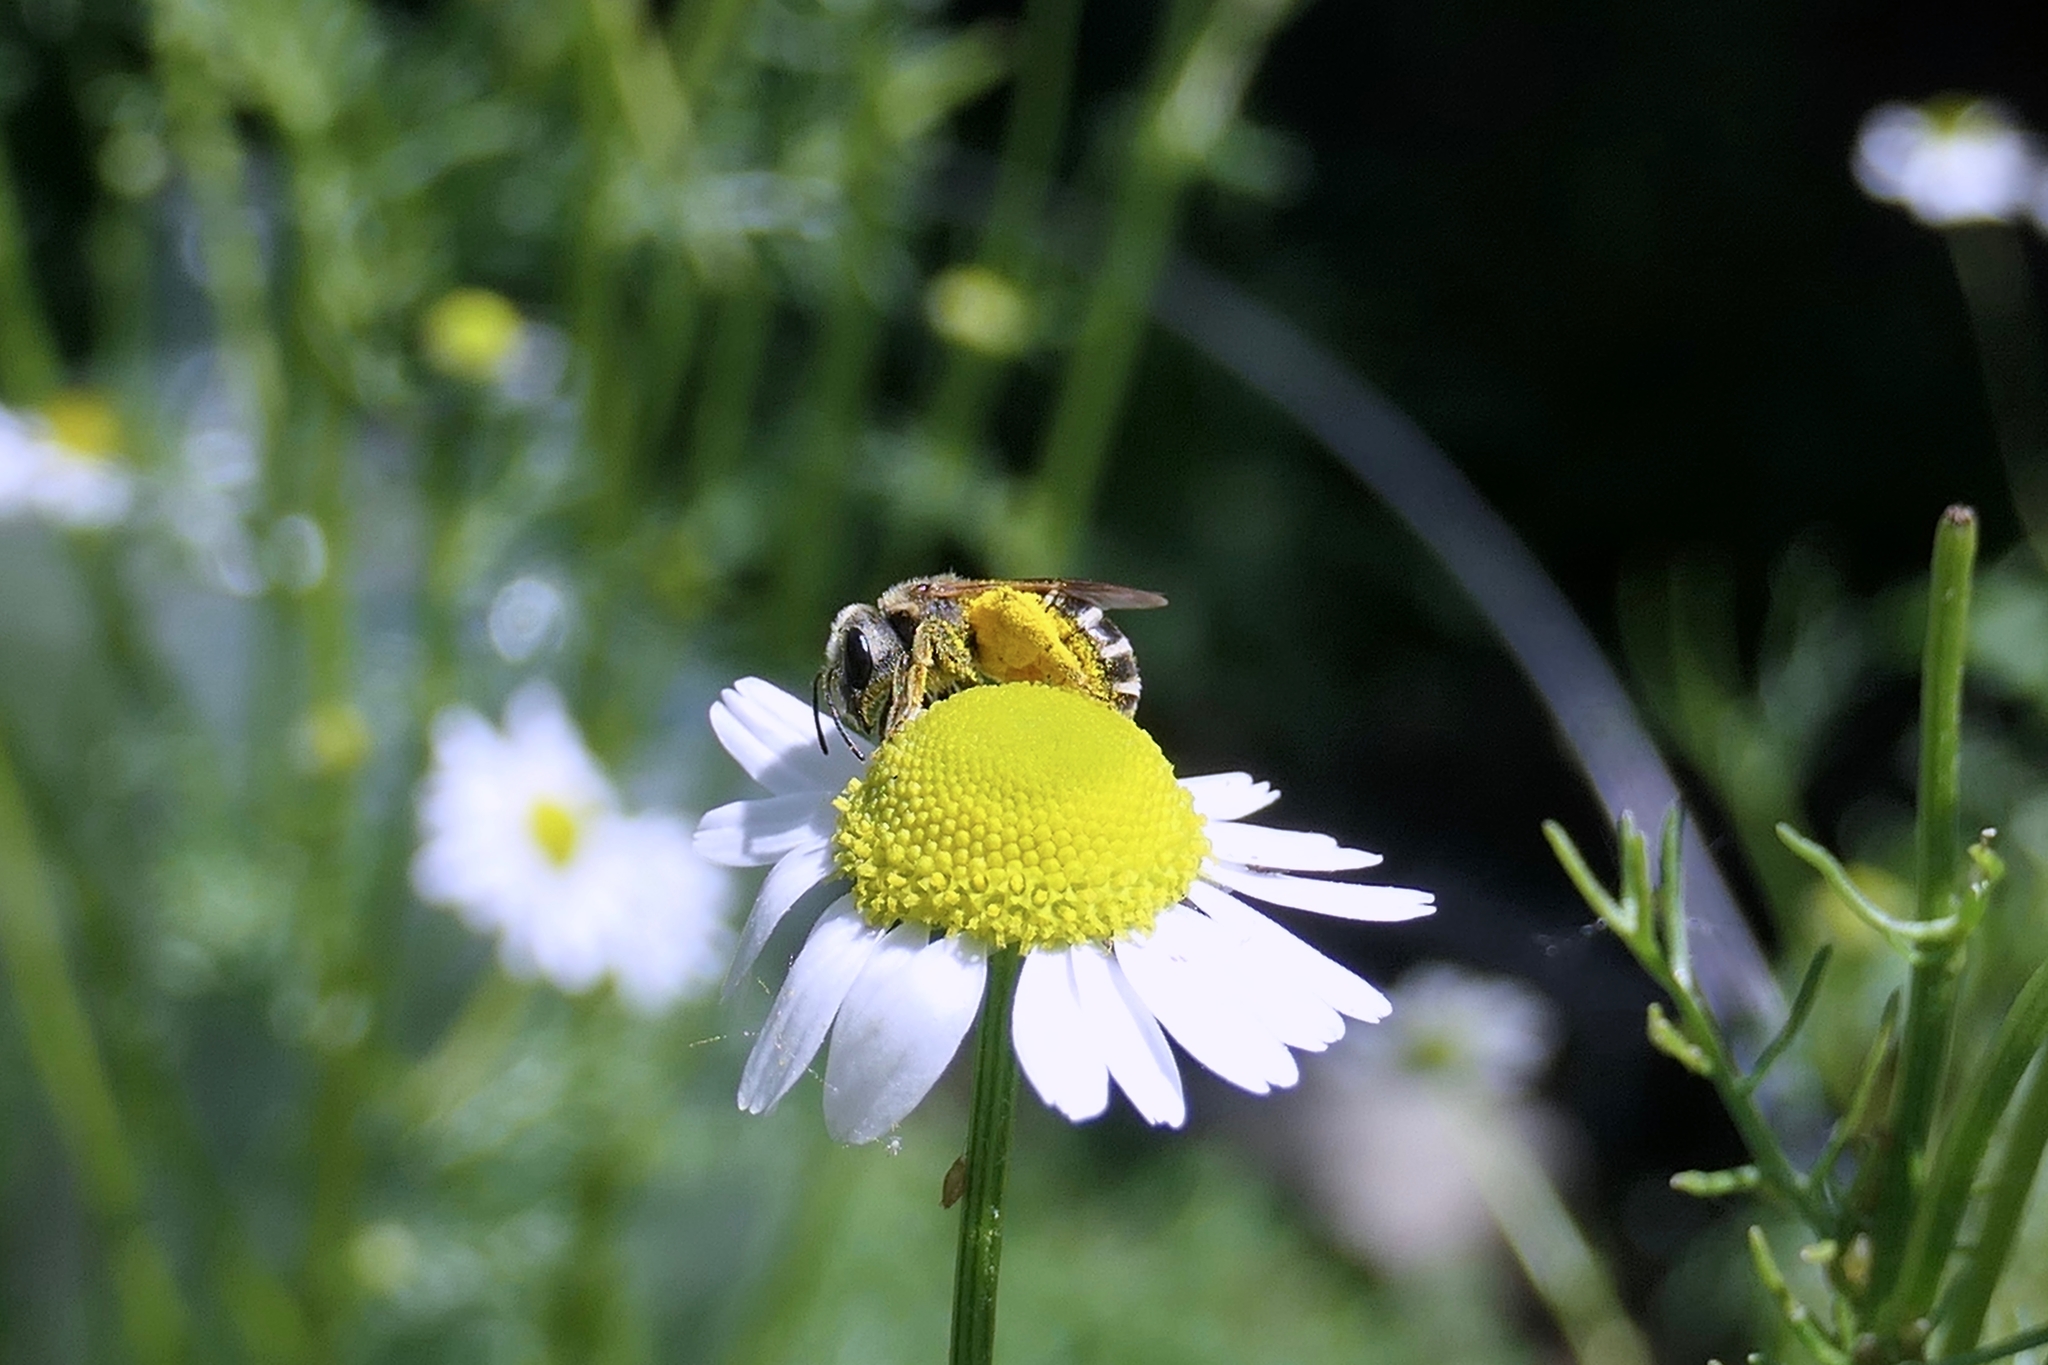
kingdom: Animalia
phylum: Arthropoda
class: Insecta
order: Hymenoptera
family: Halictidae
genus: Halictus
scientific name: Halictus ligatus
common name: Ligated furrow bee
